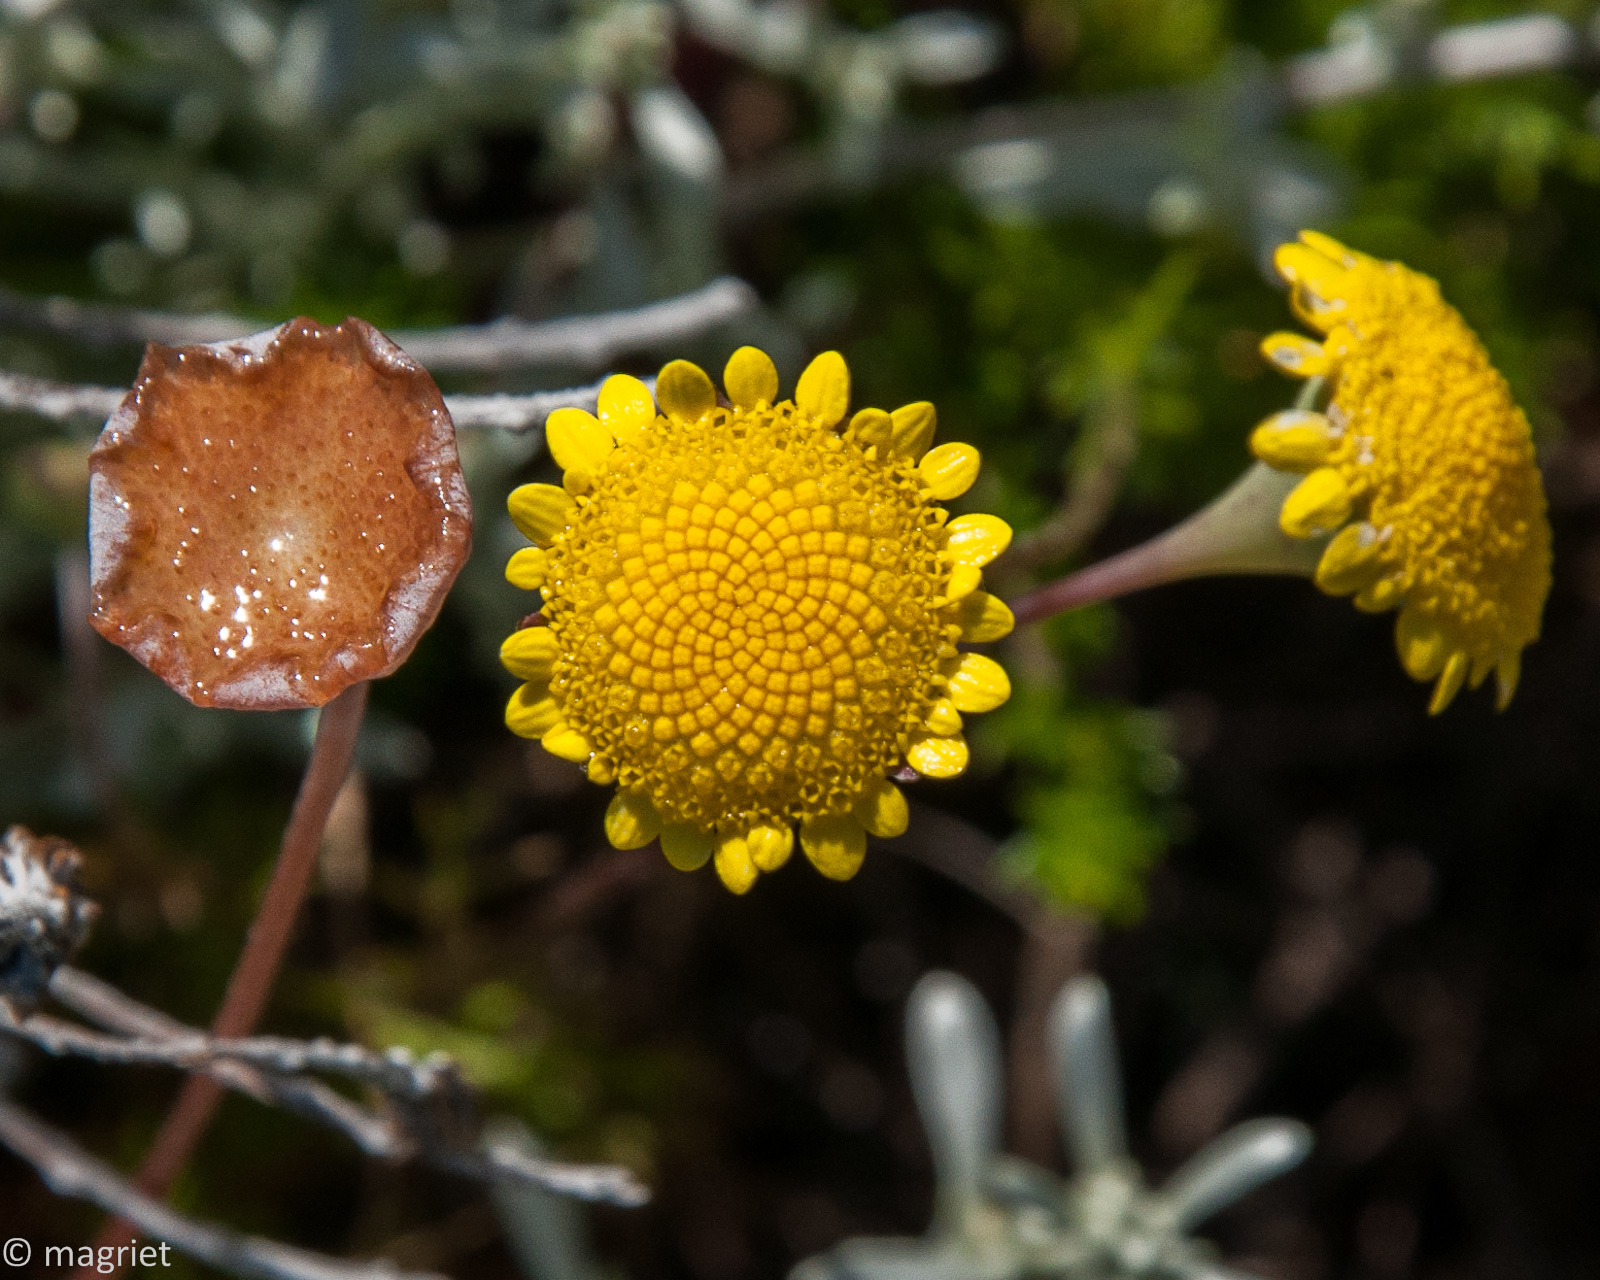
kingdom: Plantae
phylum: Tracheophyta
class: Magnoliopsida
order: Asterales
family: Asteraceae
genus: Cotula
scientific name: Cotula pruinosa
